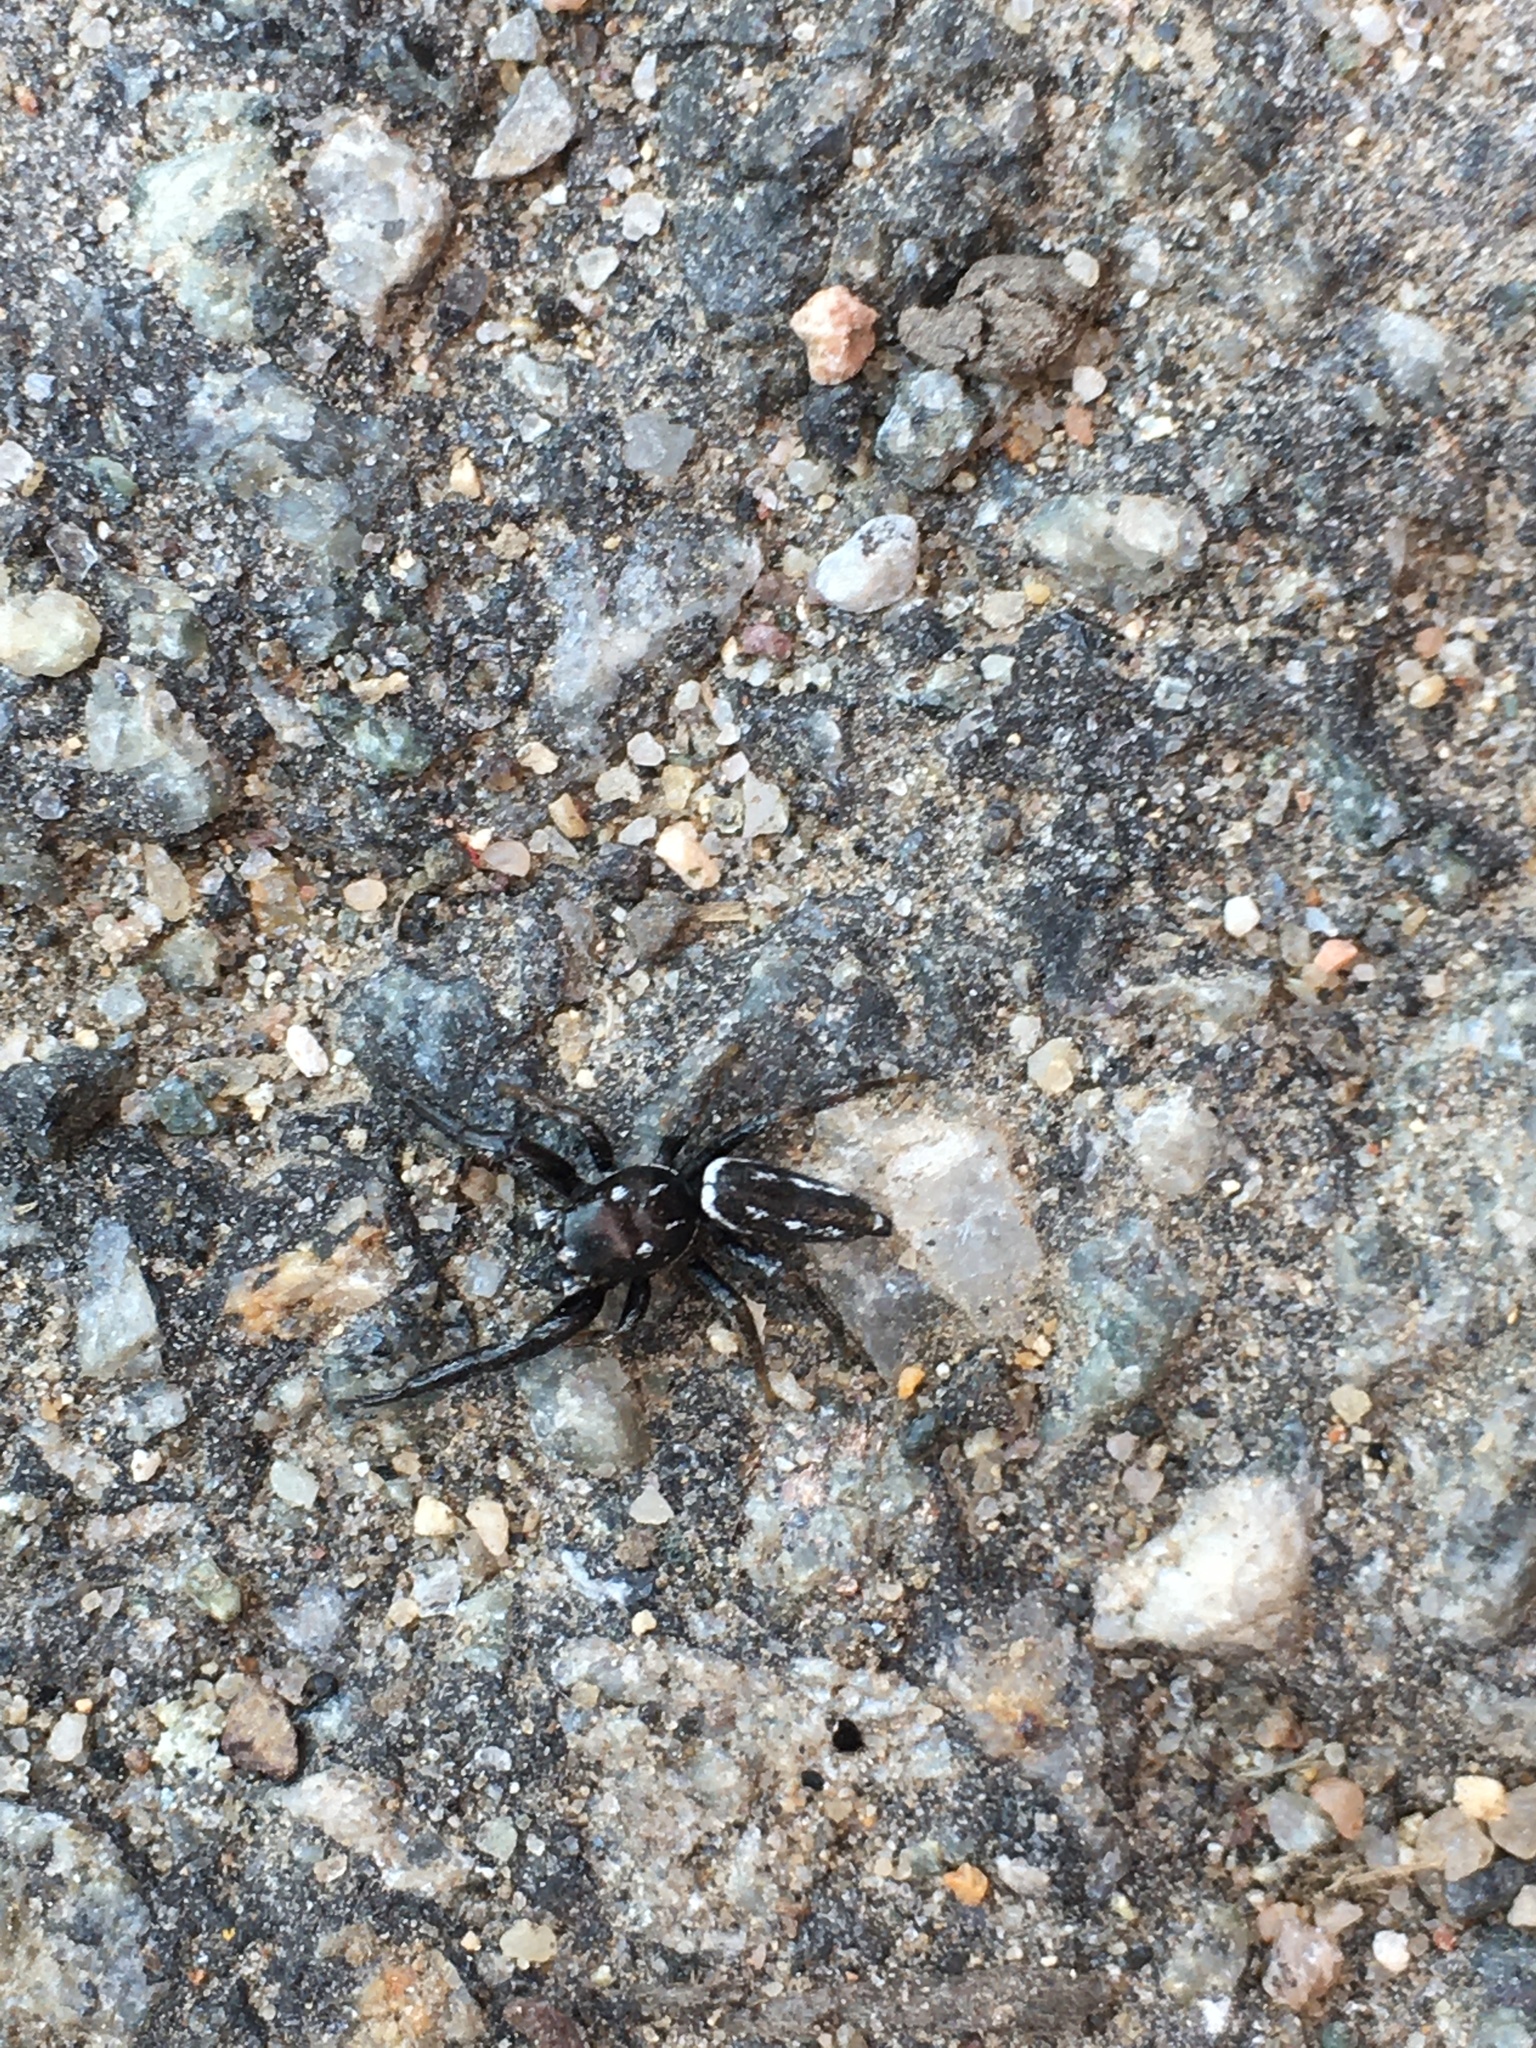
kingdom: Animalia
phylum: Arthropoda
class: Arachnida
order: Araneae
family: Salticidae
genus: Marpissa
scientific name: Marpissa formosa
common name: Short-bellied slender jumping spider
